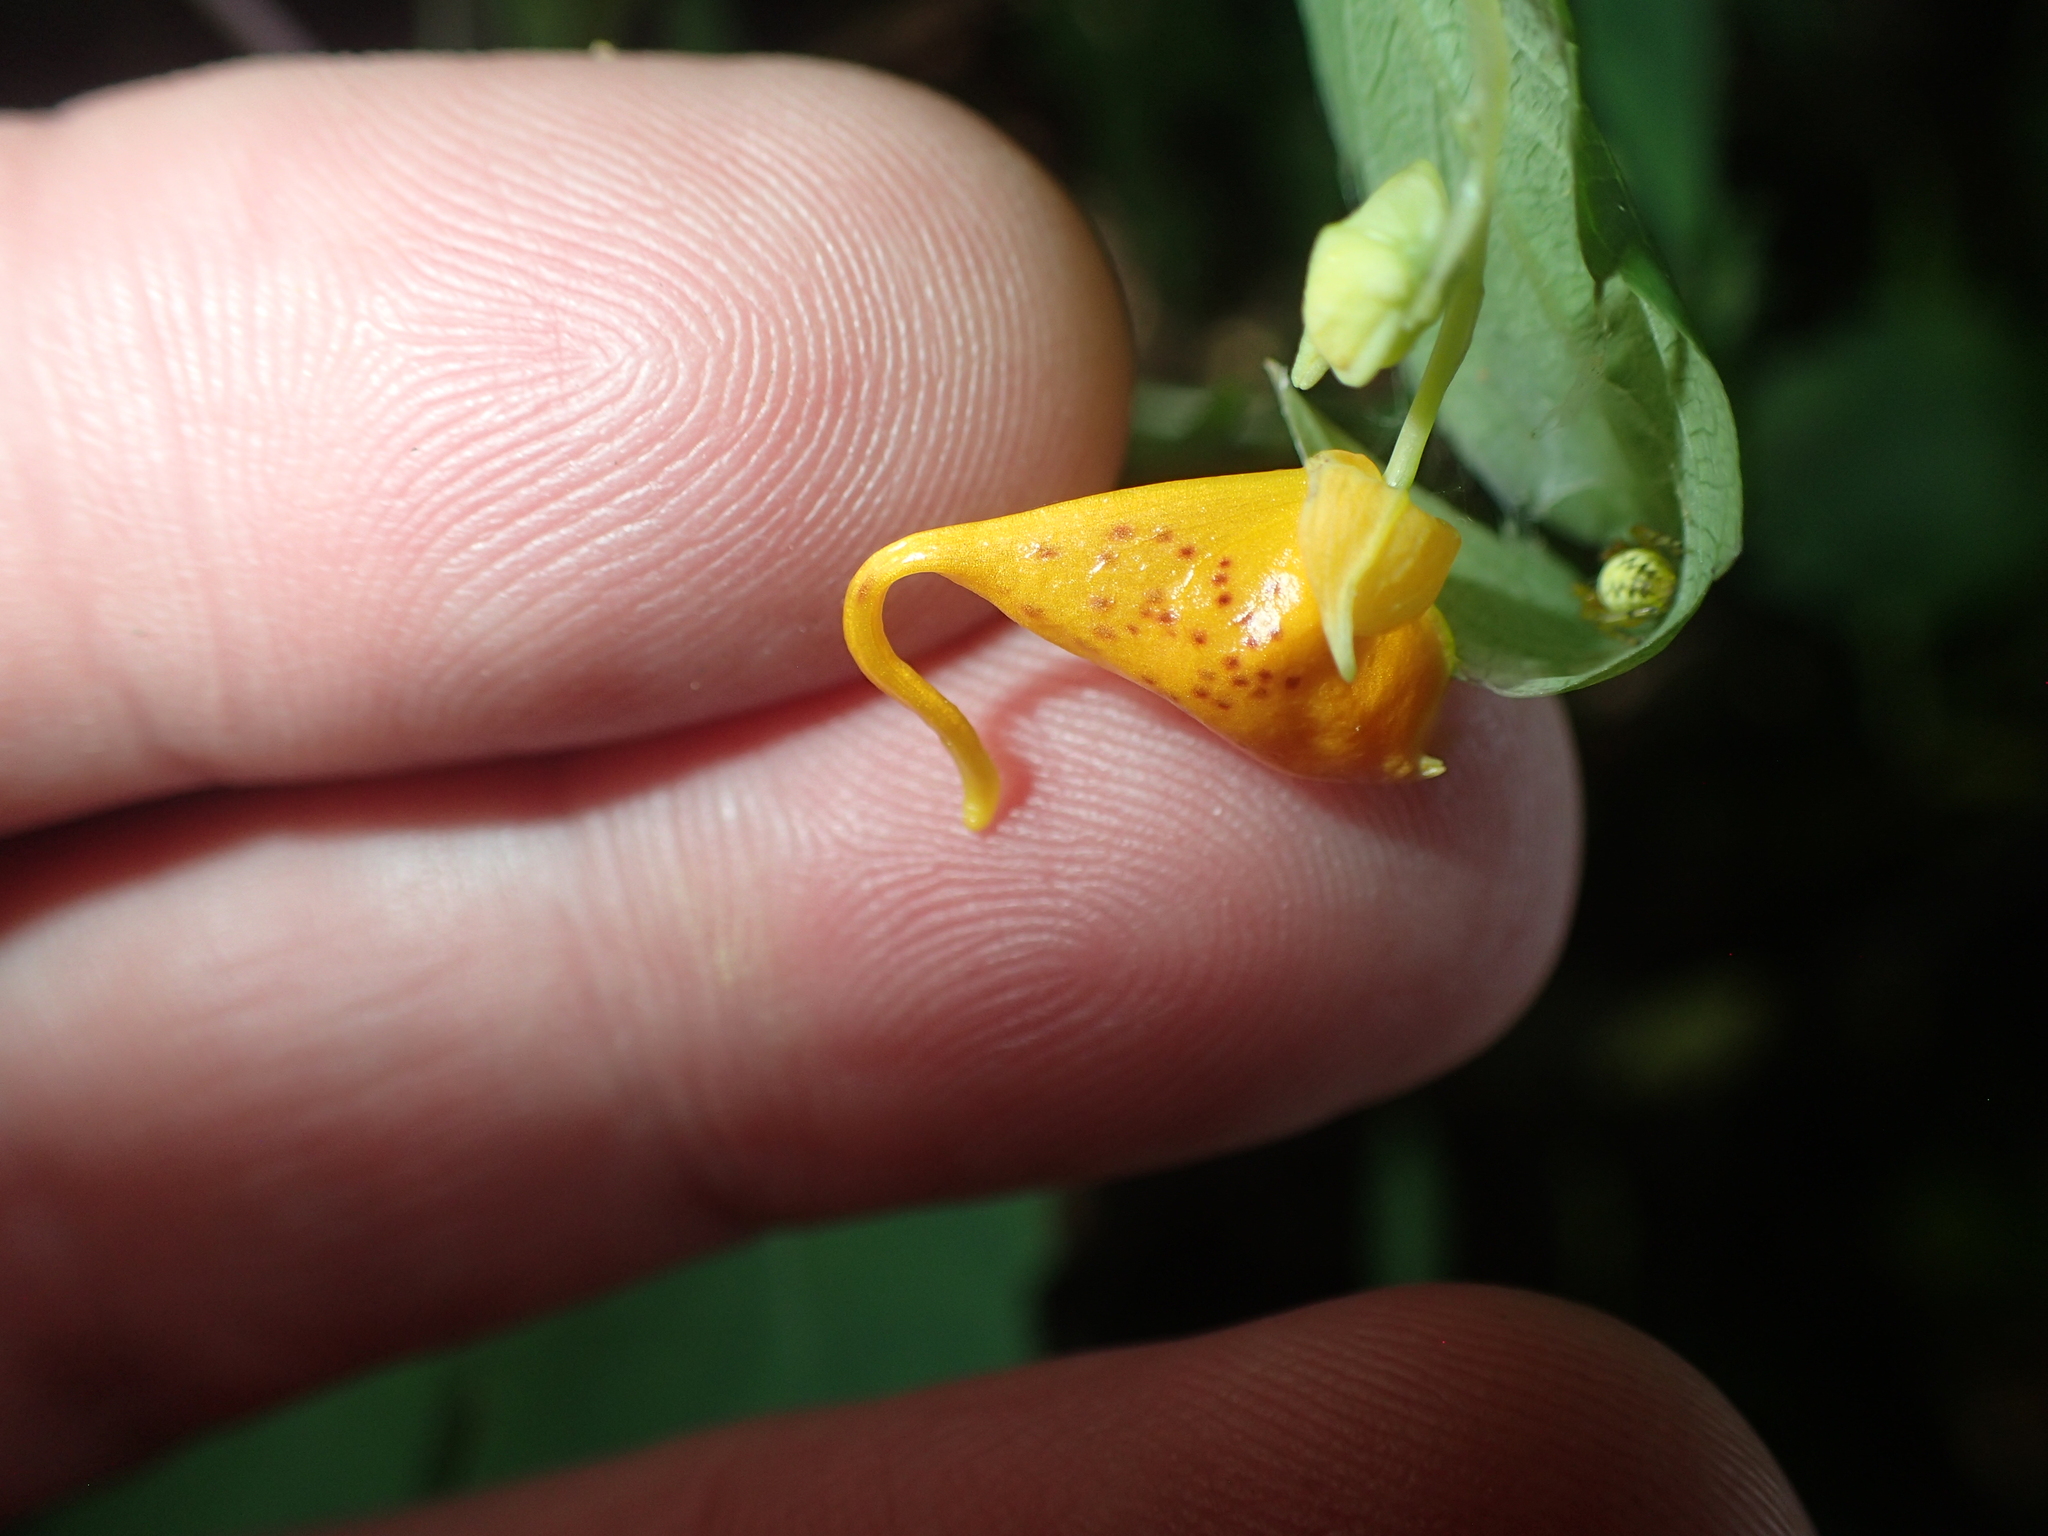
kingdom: Plantae
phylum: Tracheophyta
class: Magnoliopsida
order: Ericales
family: Balsaminaceae
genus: Impatiens
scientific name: Impatiens capensis
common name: Orange balsam
